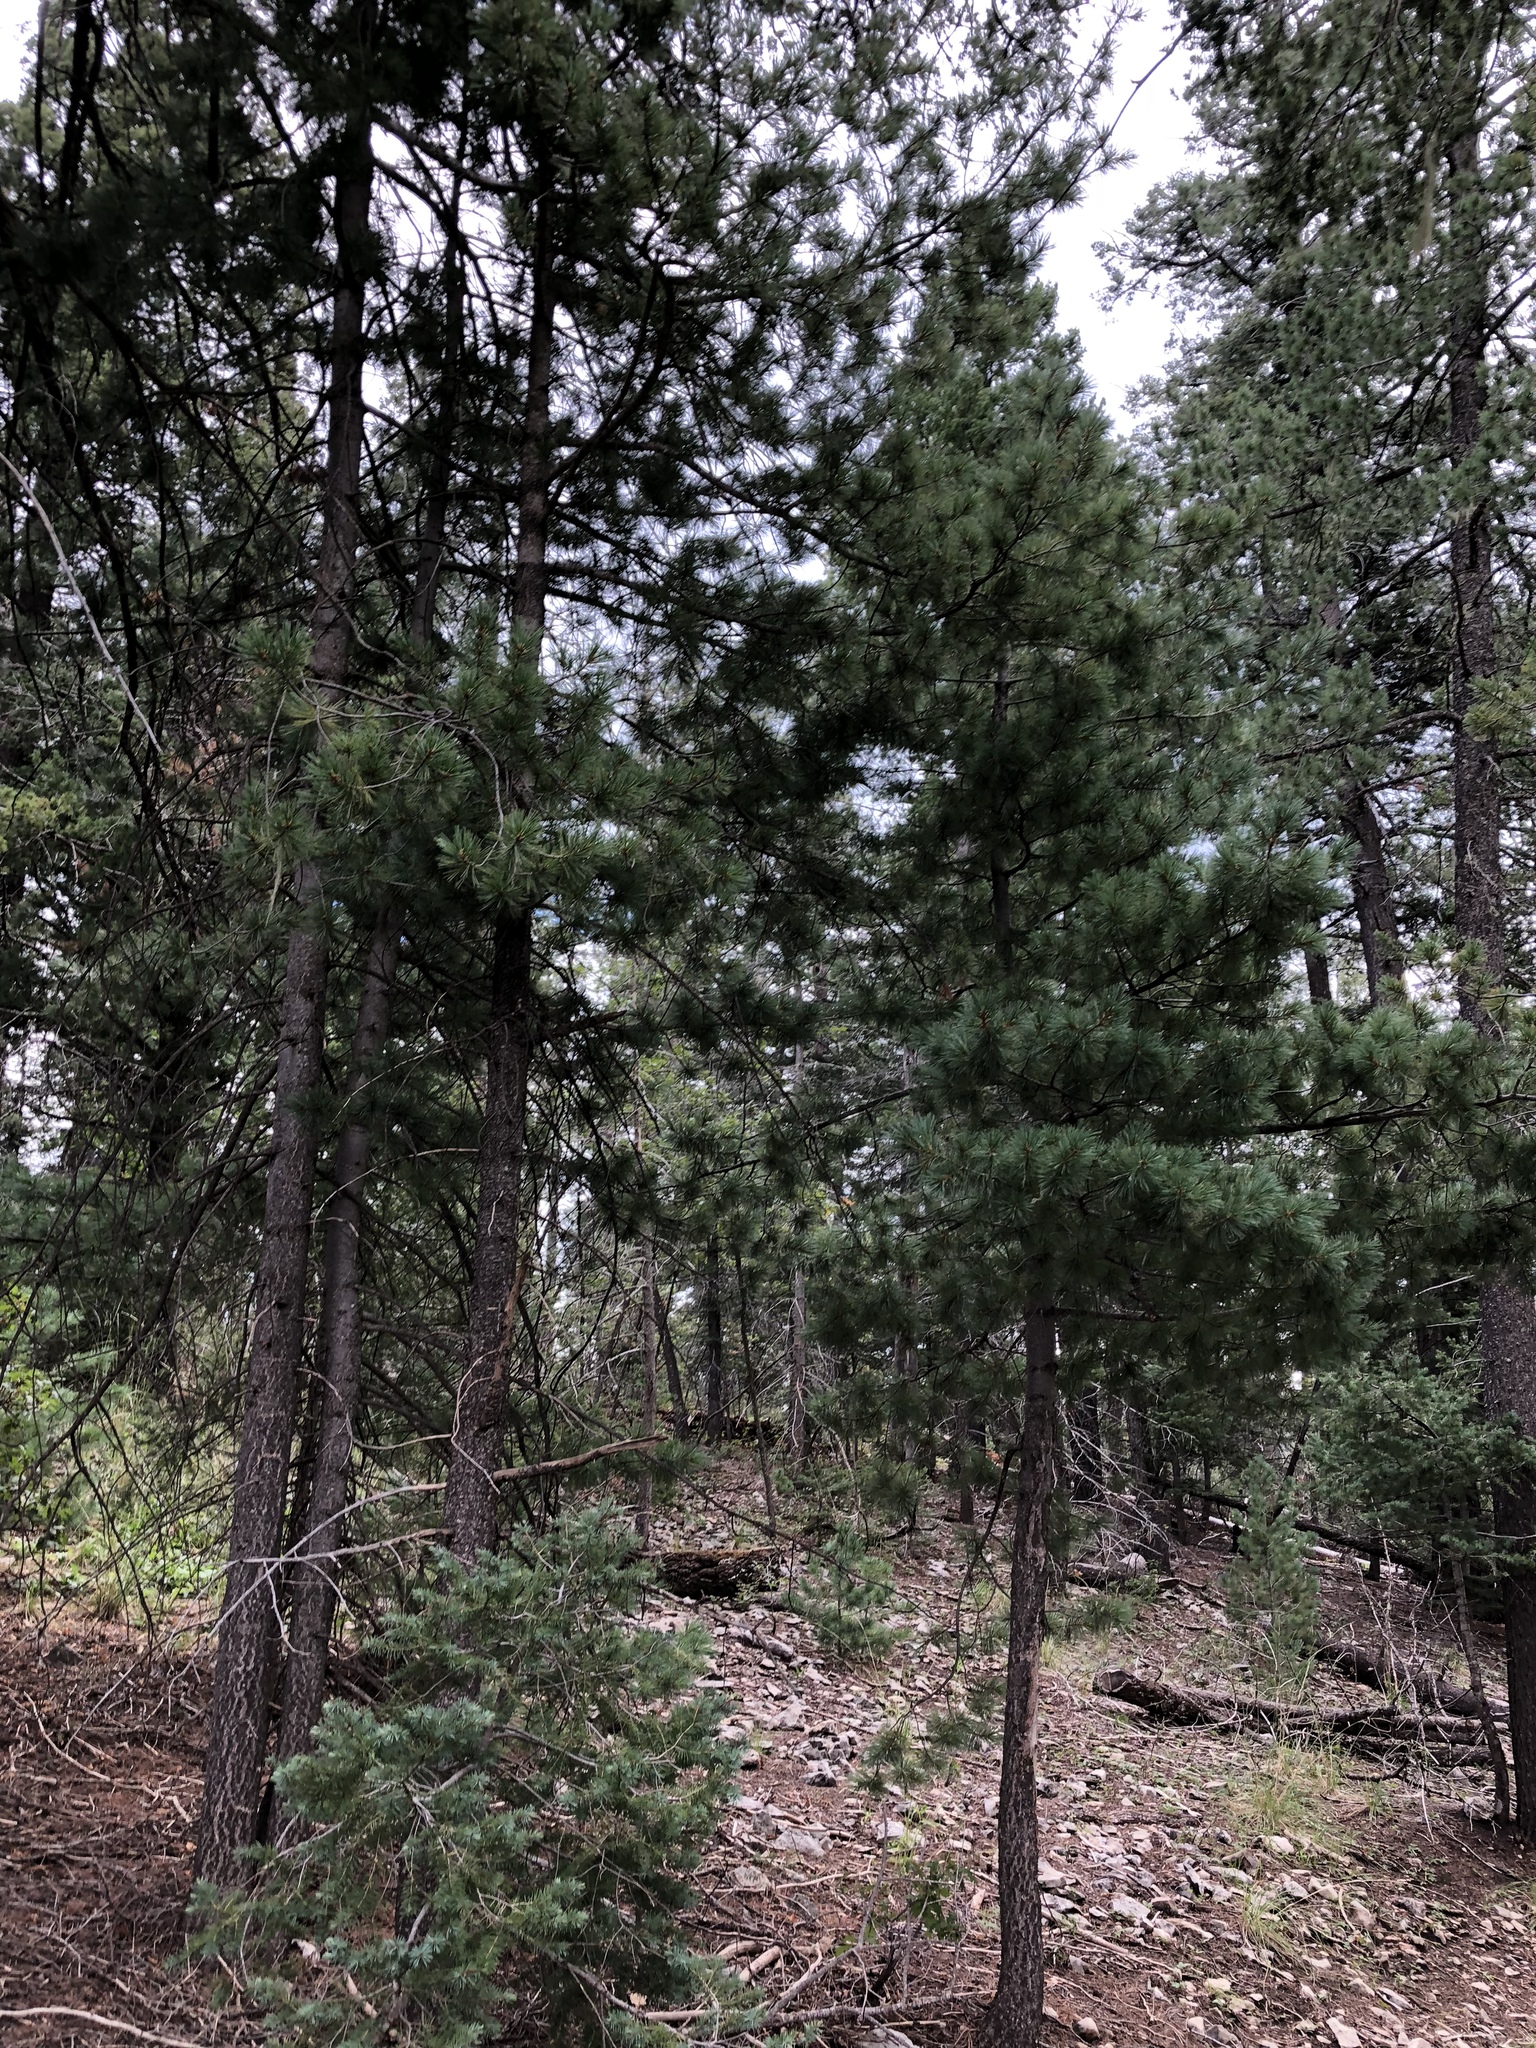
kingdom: Plantae
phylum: Tracheophyta
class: Pinopsida
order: Pinales
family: Pinaceae
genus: Pinus
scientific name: Pinus ponderosa
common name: Western yellow-pine
